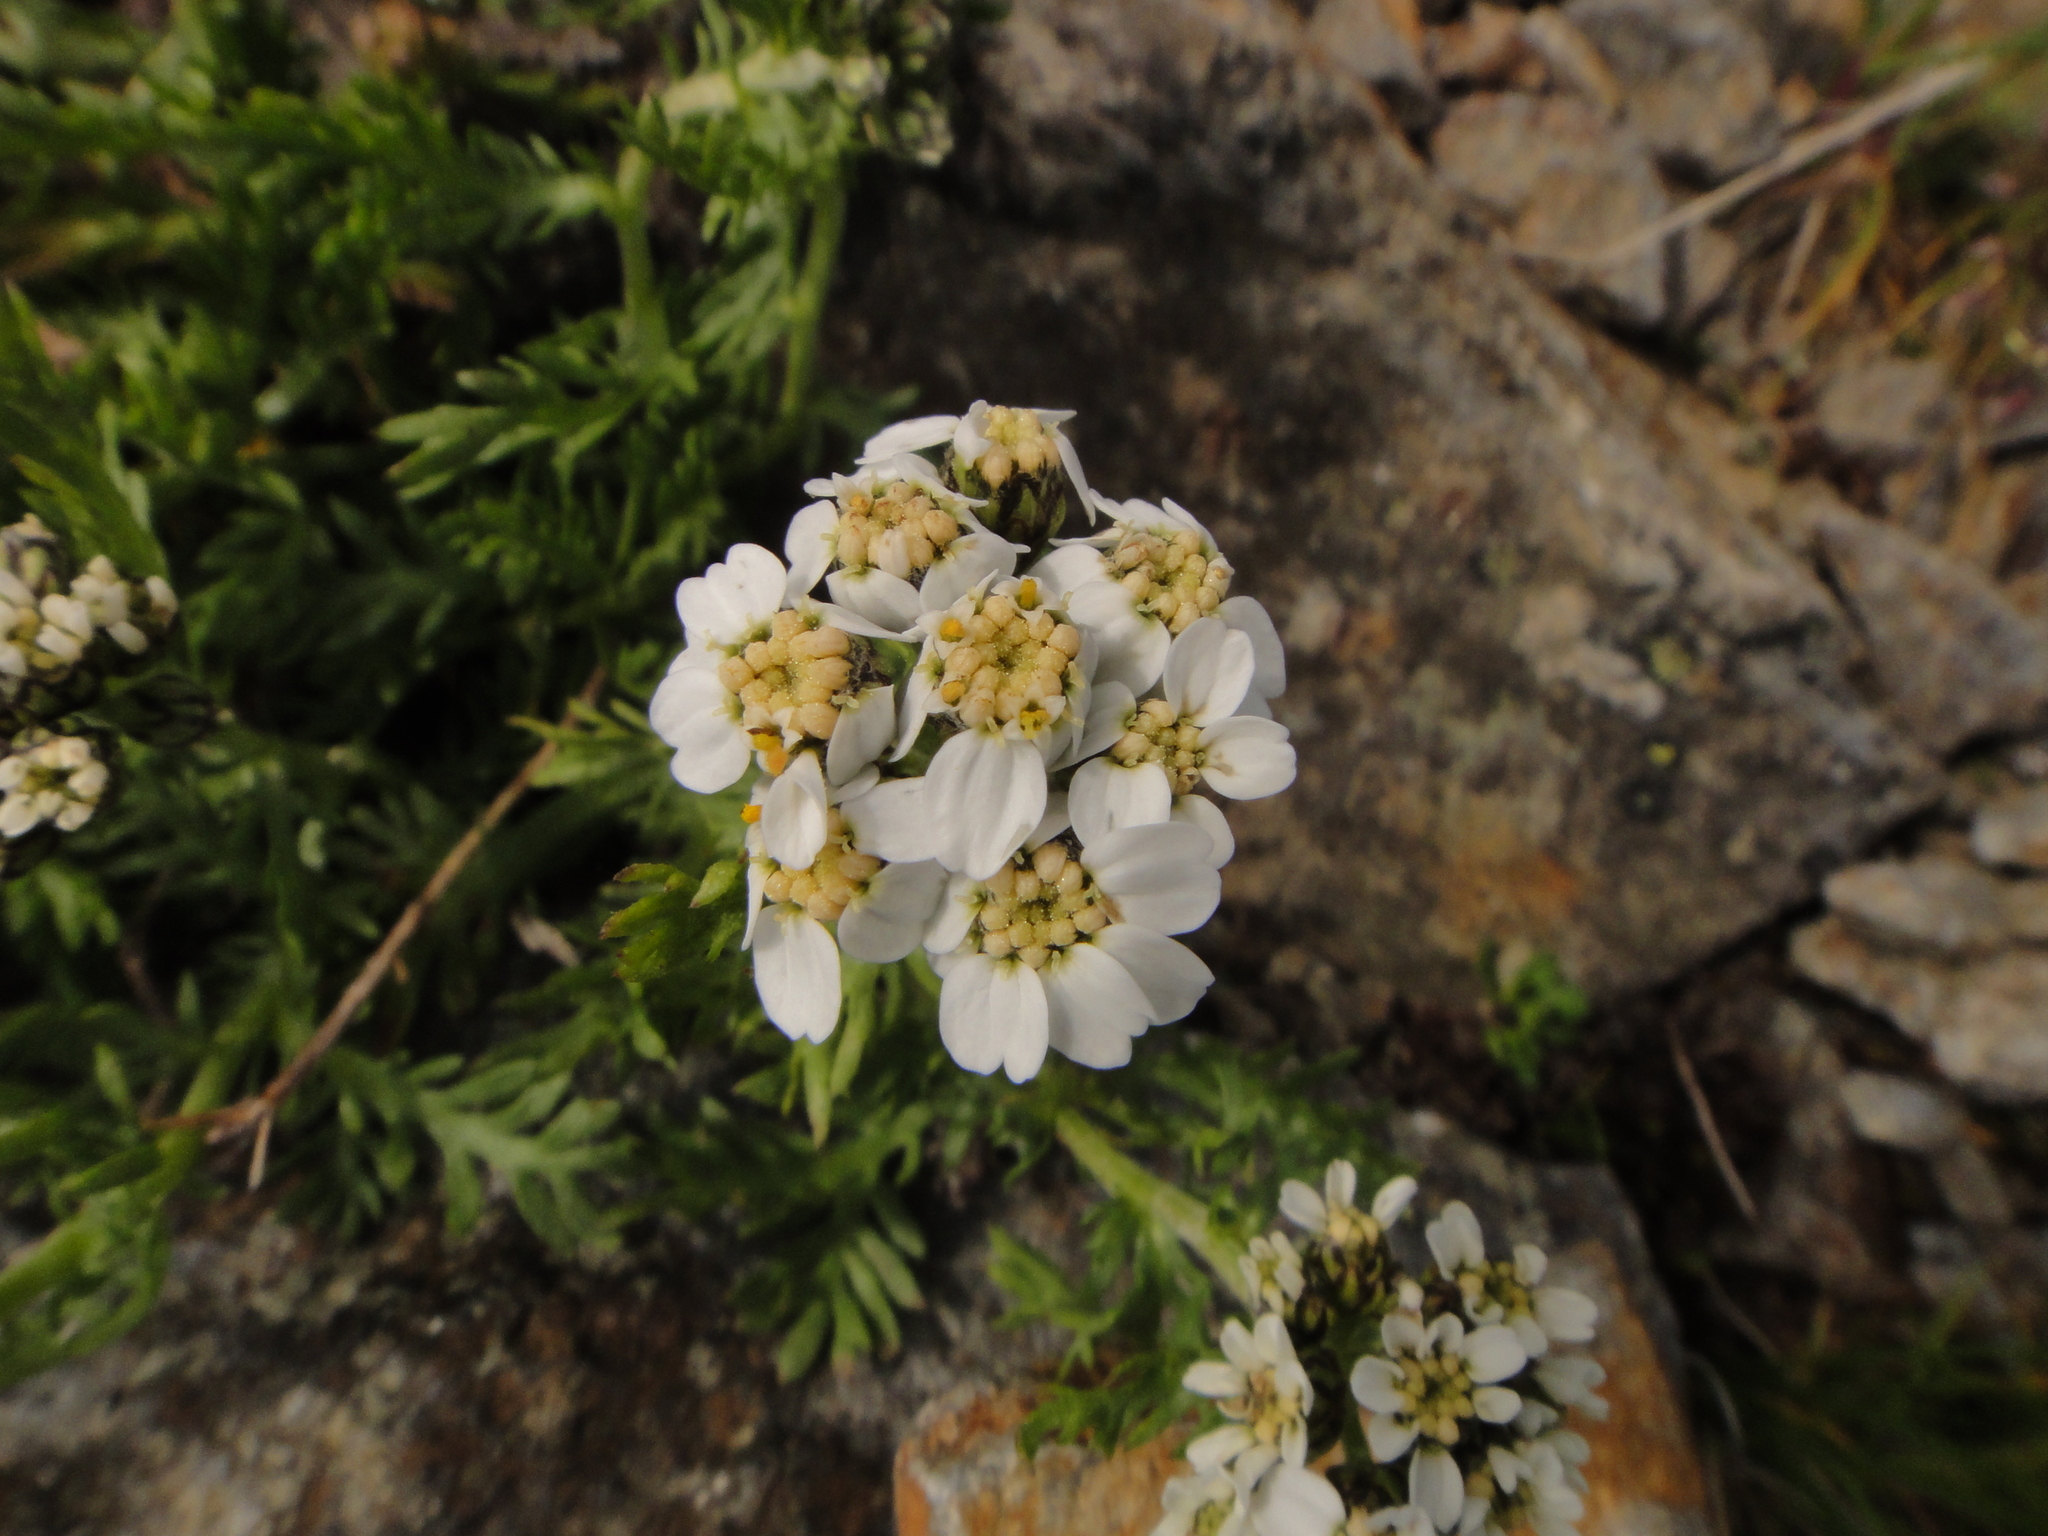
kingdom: Plantae
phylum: Tracheophyta
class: Magnoliopsida
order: Asterales
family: Asteraceae
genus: Achillea
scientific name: Achillea erba-rotta
